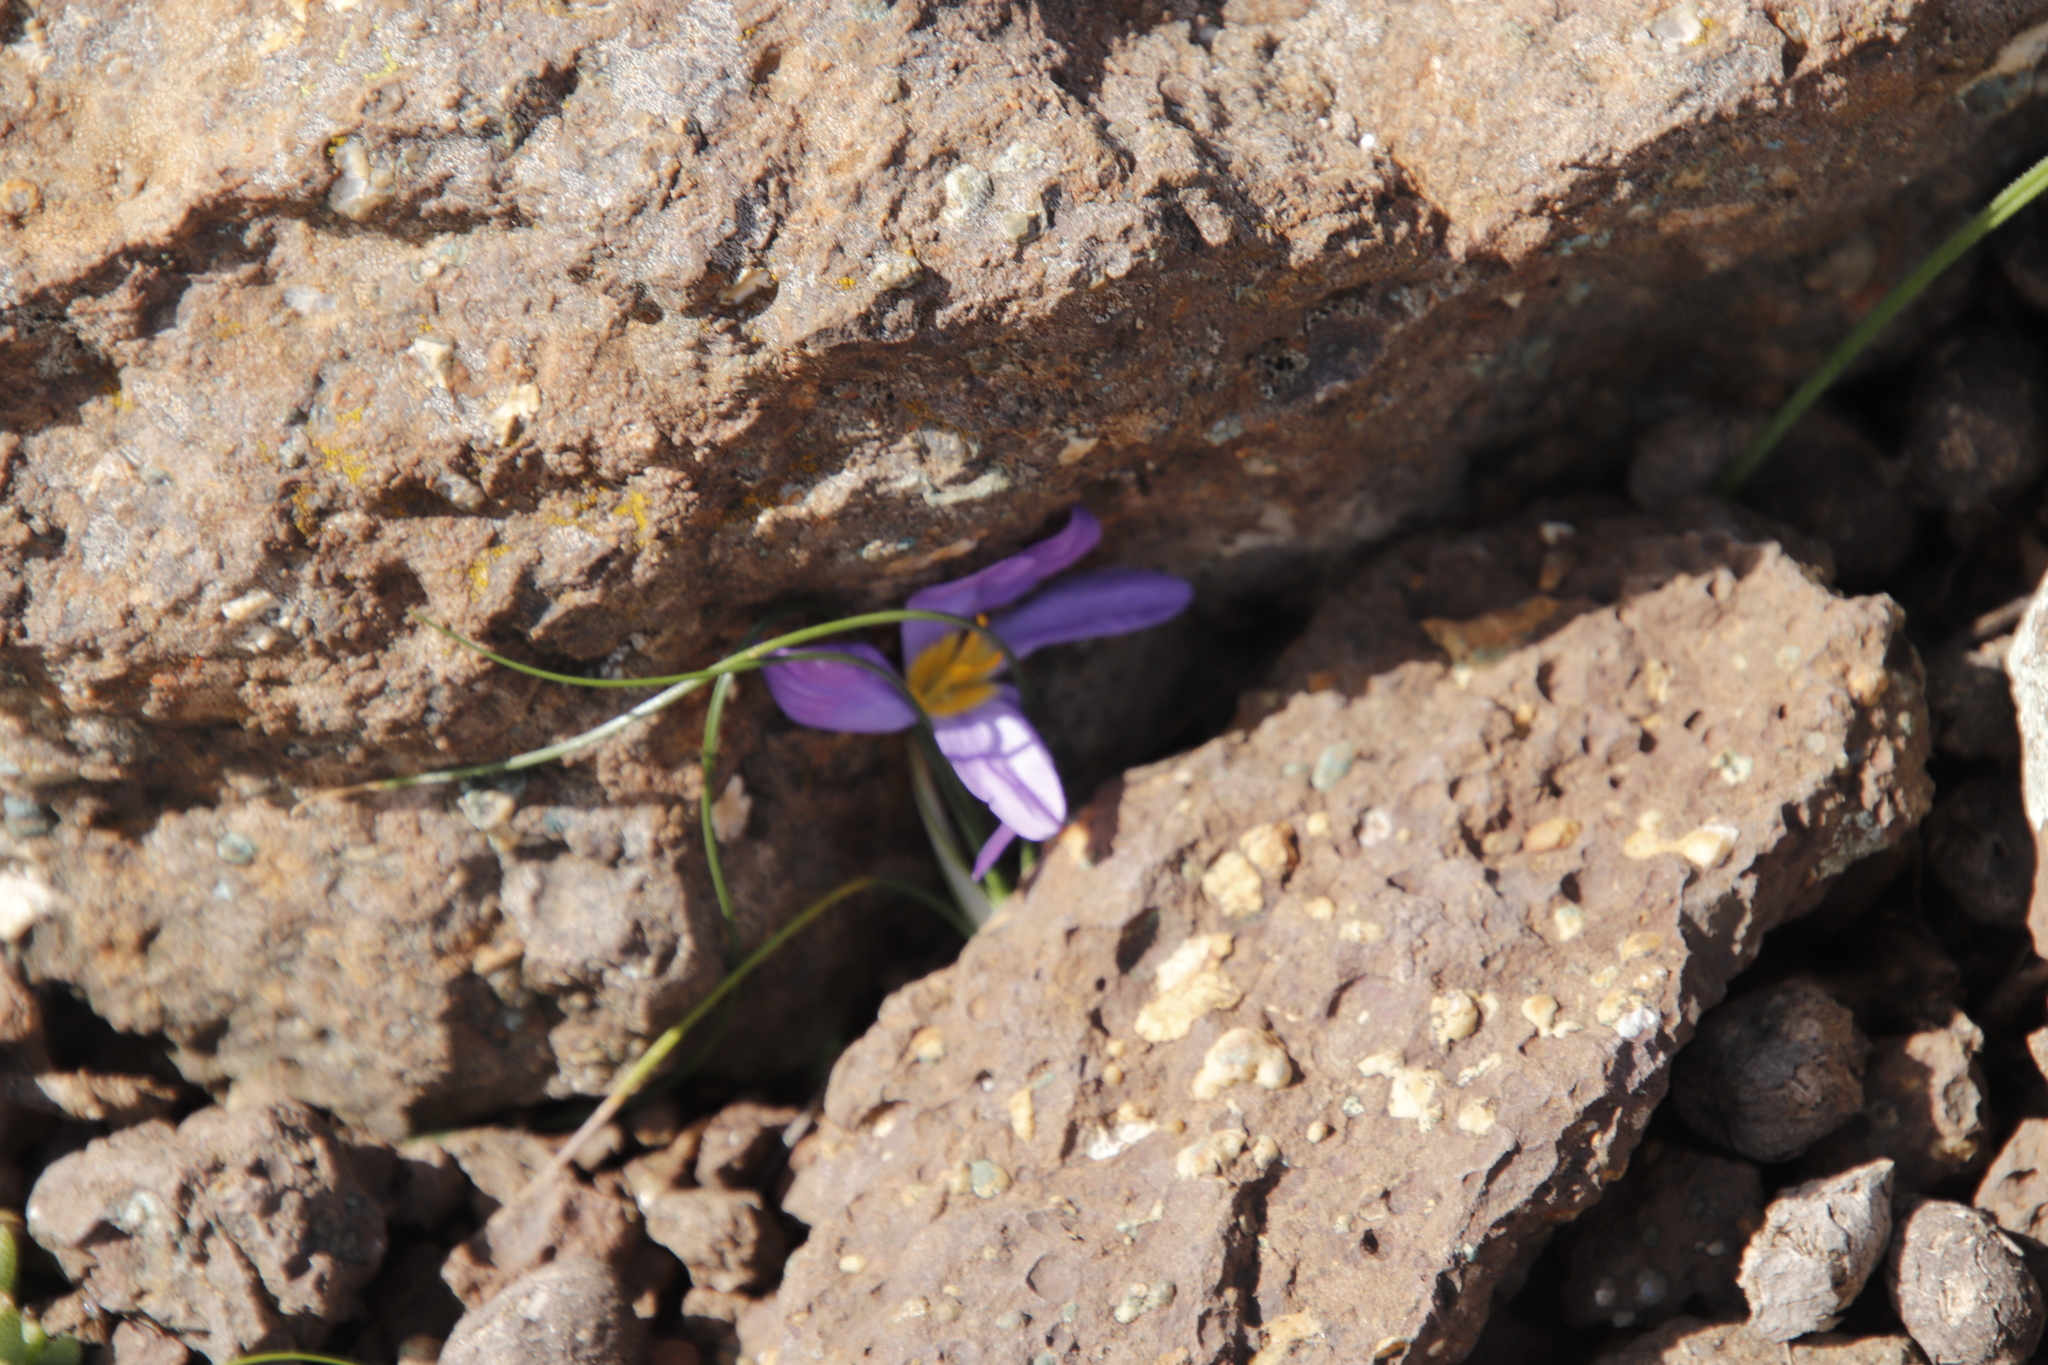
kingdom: Plantae
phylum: Tracheophyta
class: Liliopsida
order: Asparagales
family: Iridaceae
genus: Syringodea
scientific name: Syringodea bifucata
